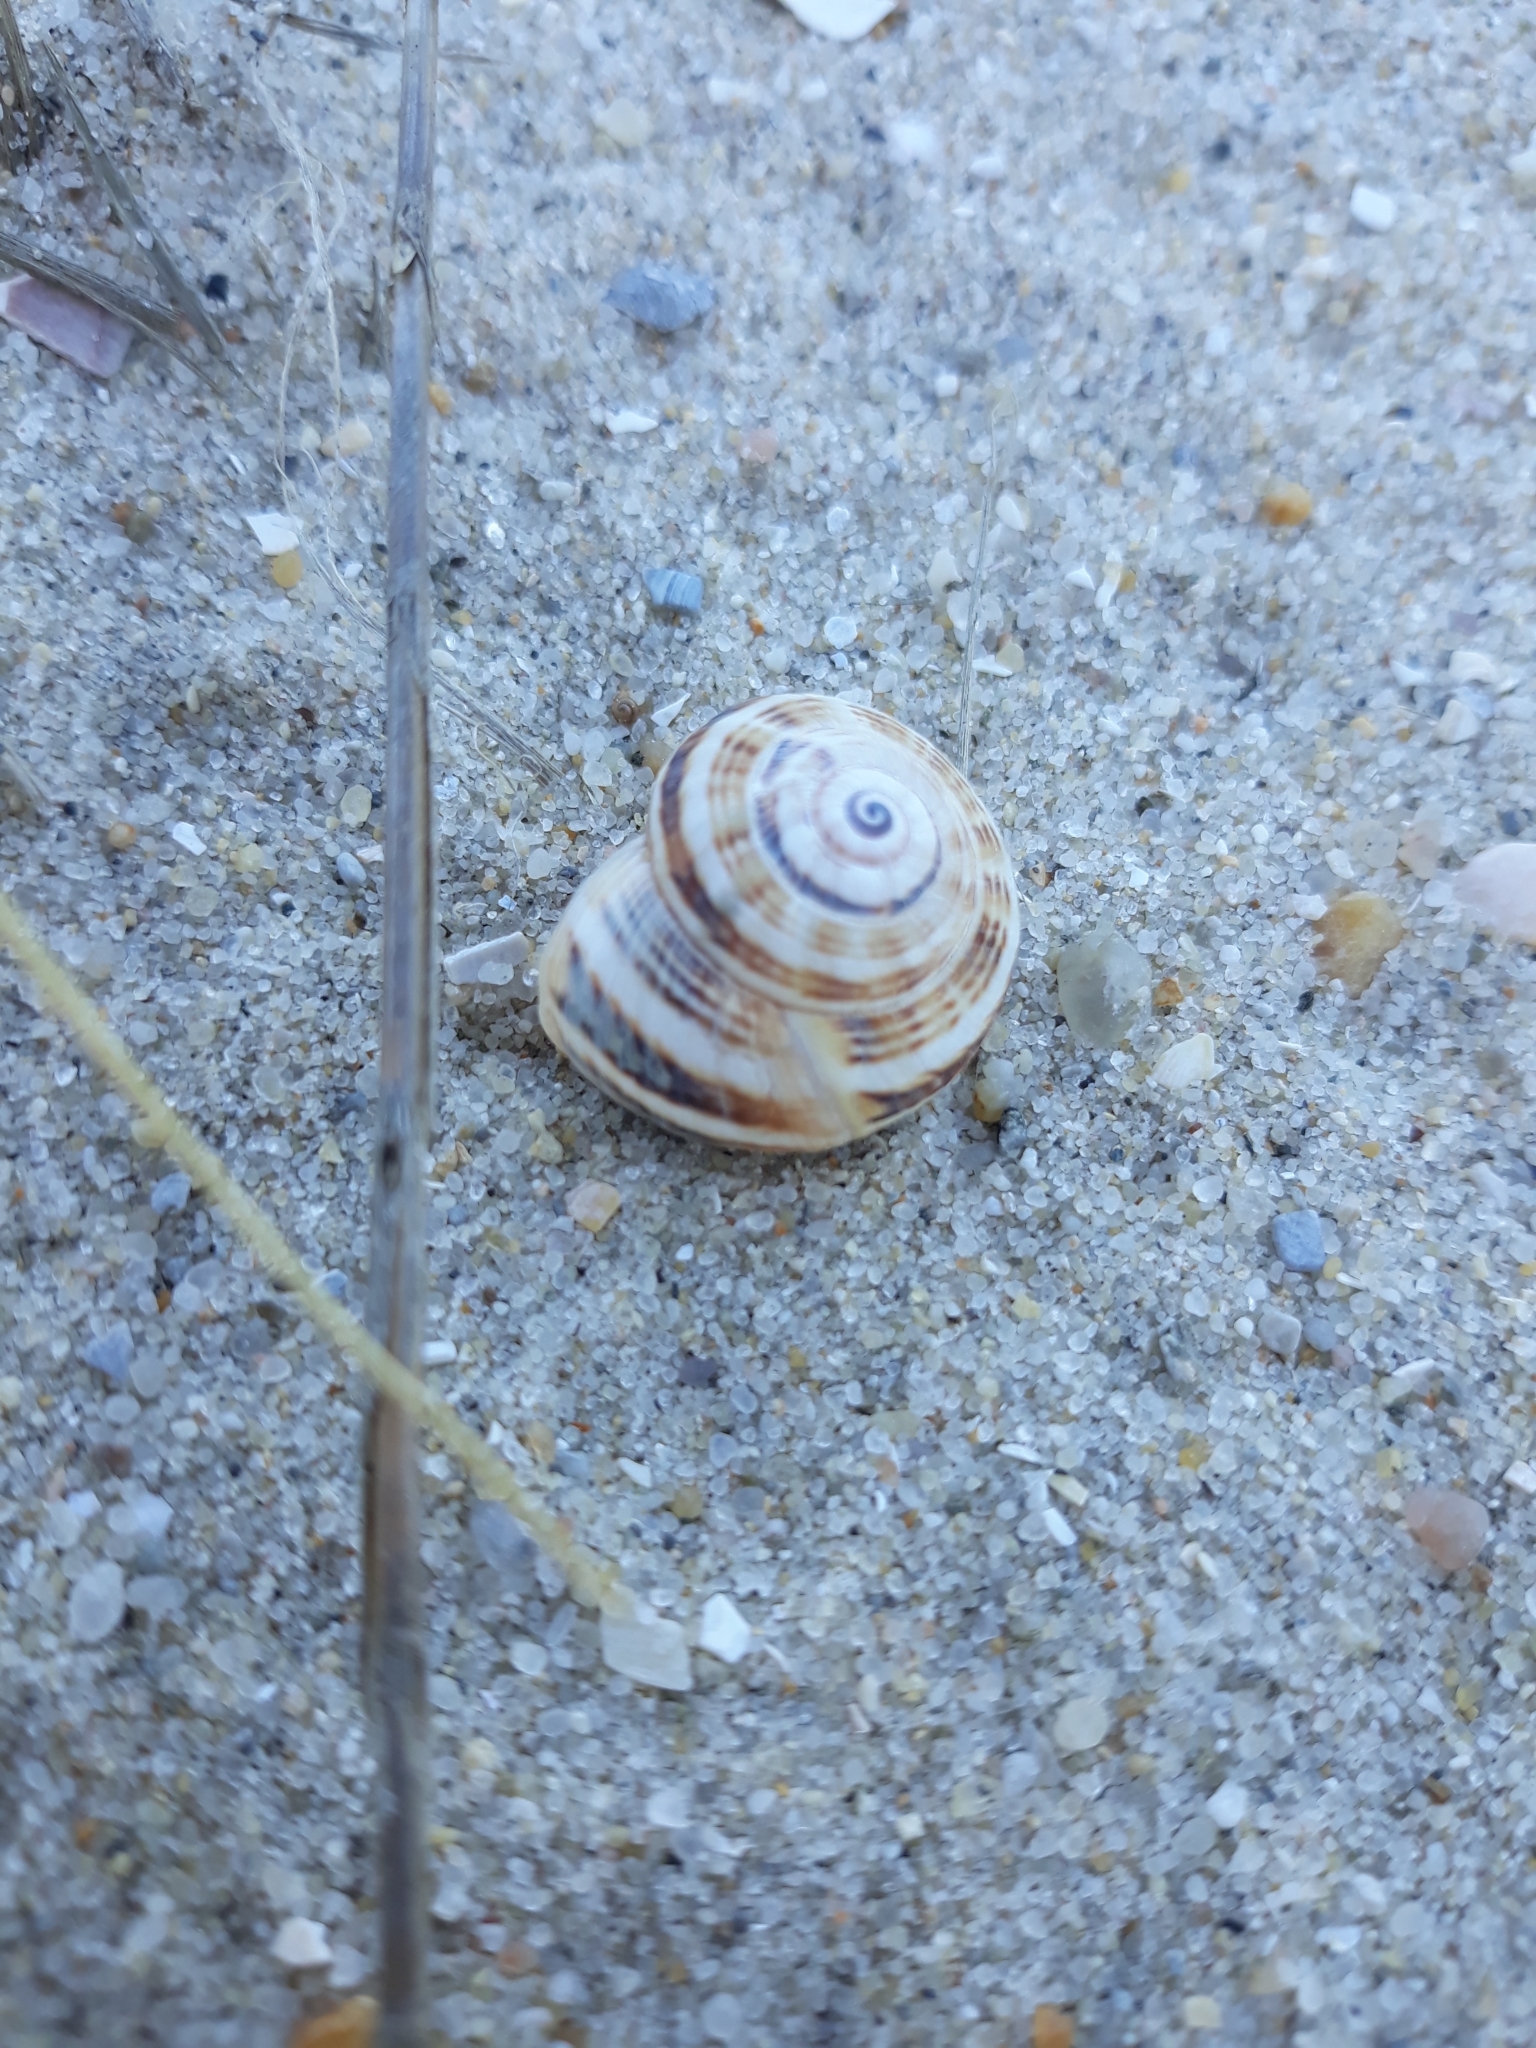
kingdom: Animalia
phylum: Mollusca
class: Gastropoda
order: Stylommatophora
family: Helicidae
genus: Theba
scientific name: Theba pisana
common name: White snail
